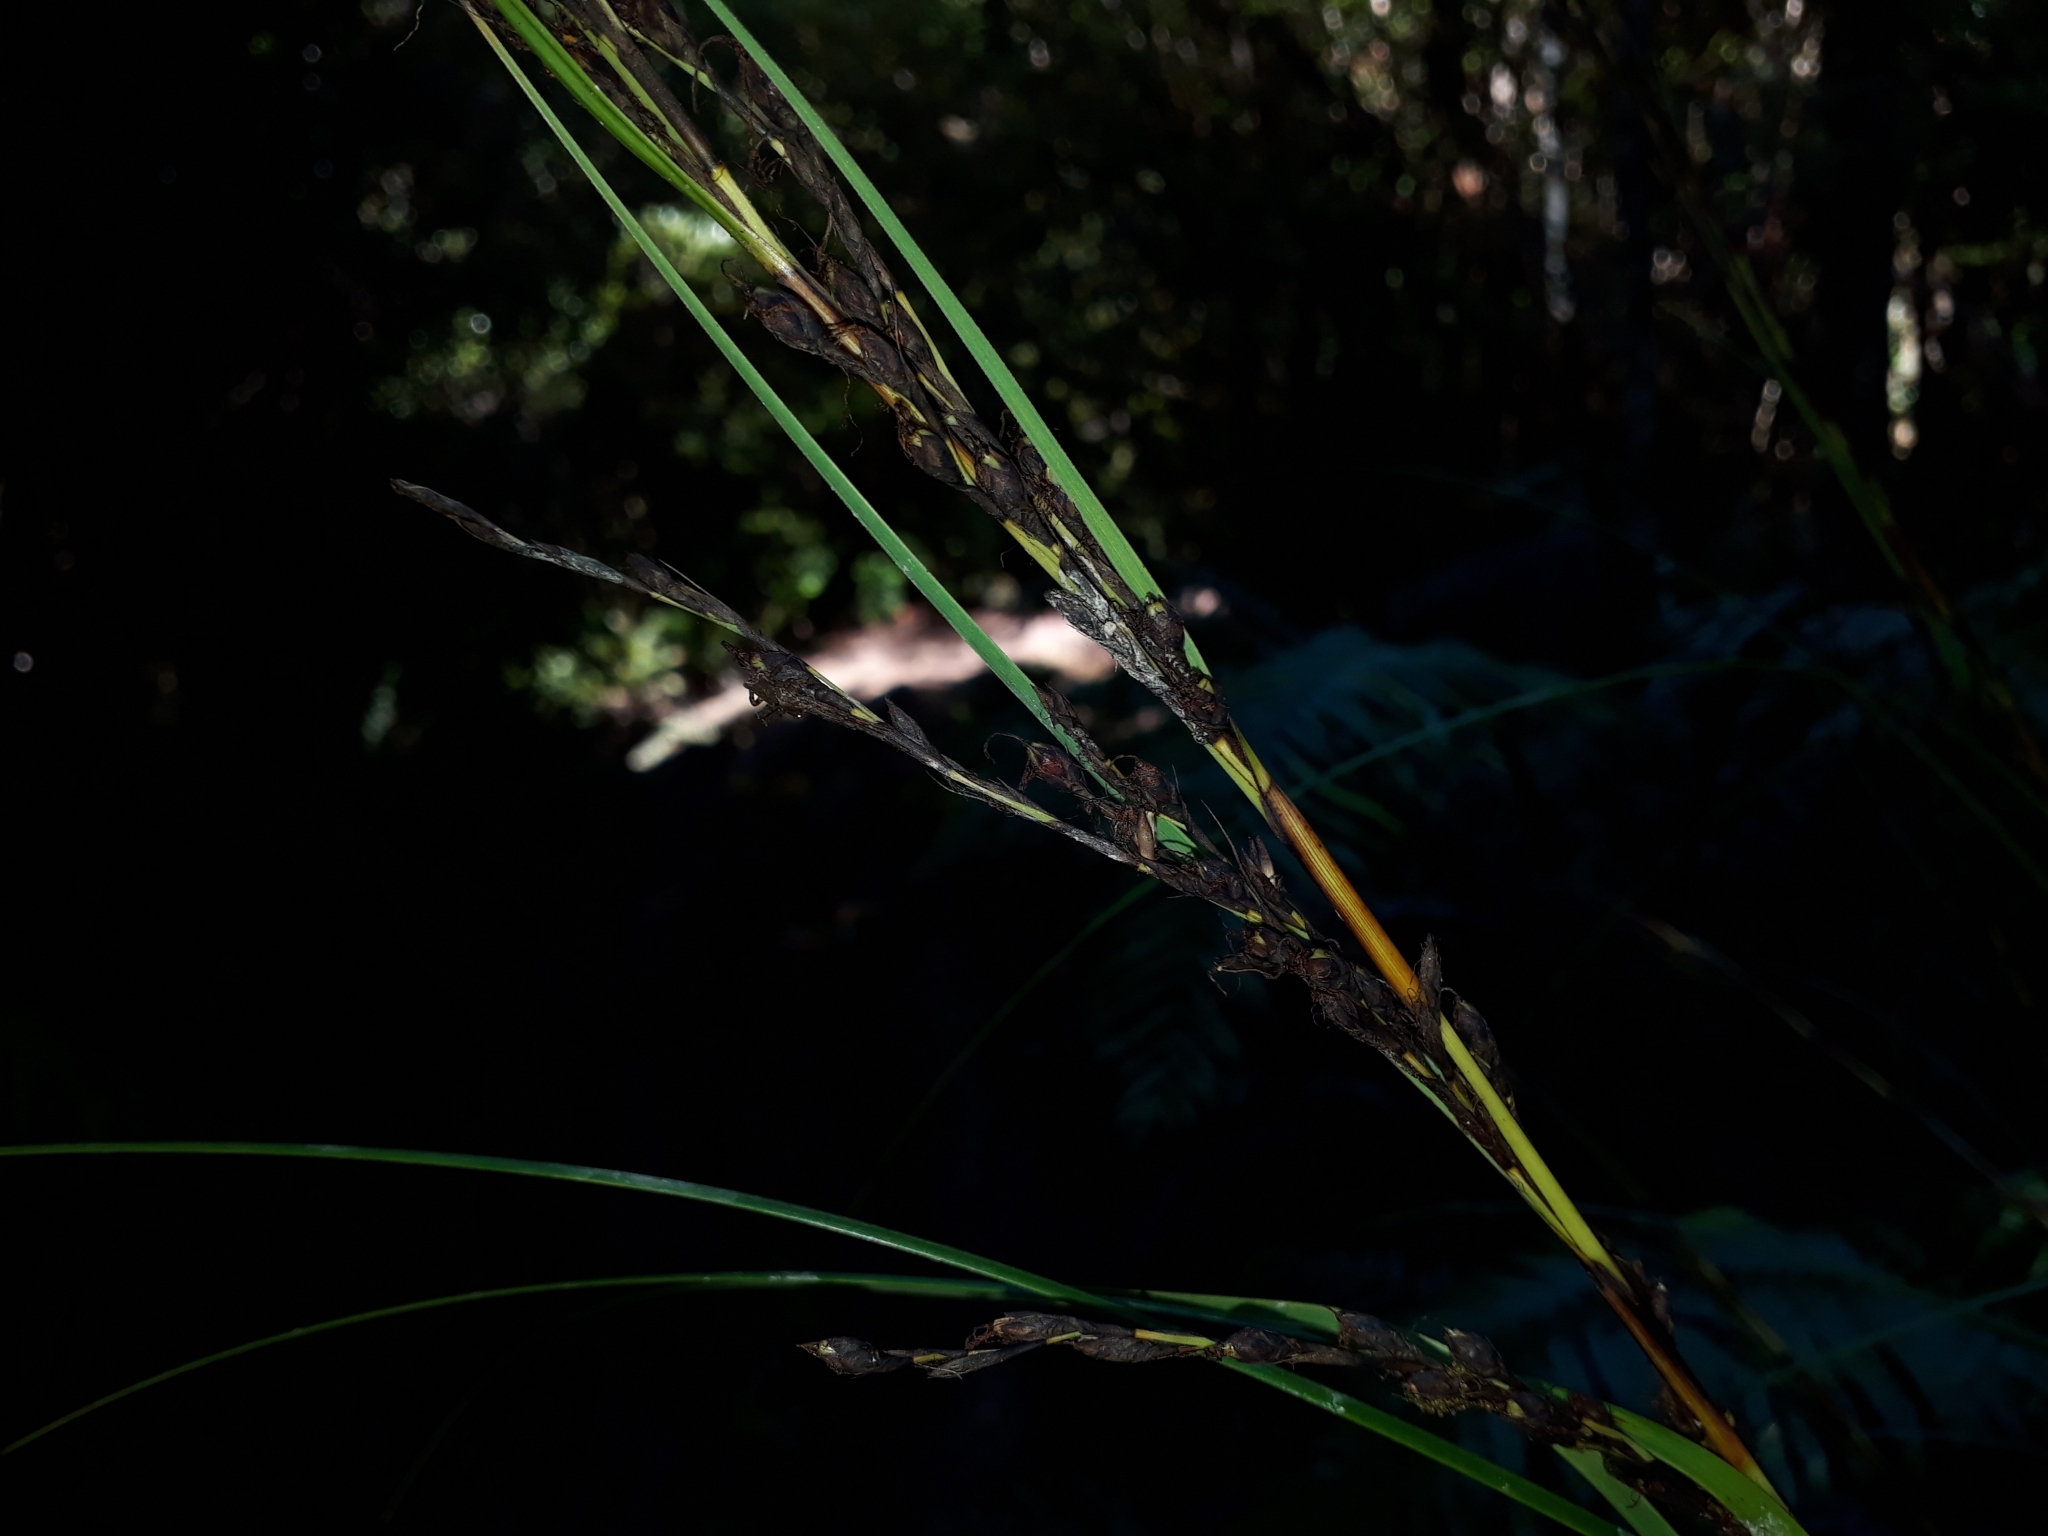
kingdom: Plantae
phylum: Tracheophyta
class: Liliopsida
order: Poales
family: Cyperaceae
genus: Gahnia
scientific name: Gahnia pauciflora
